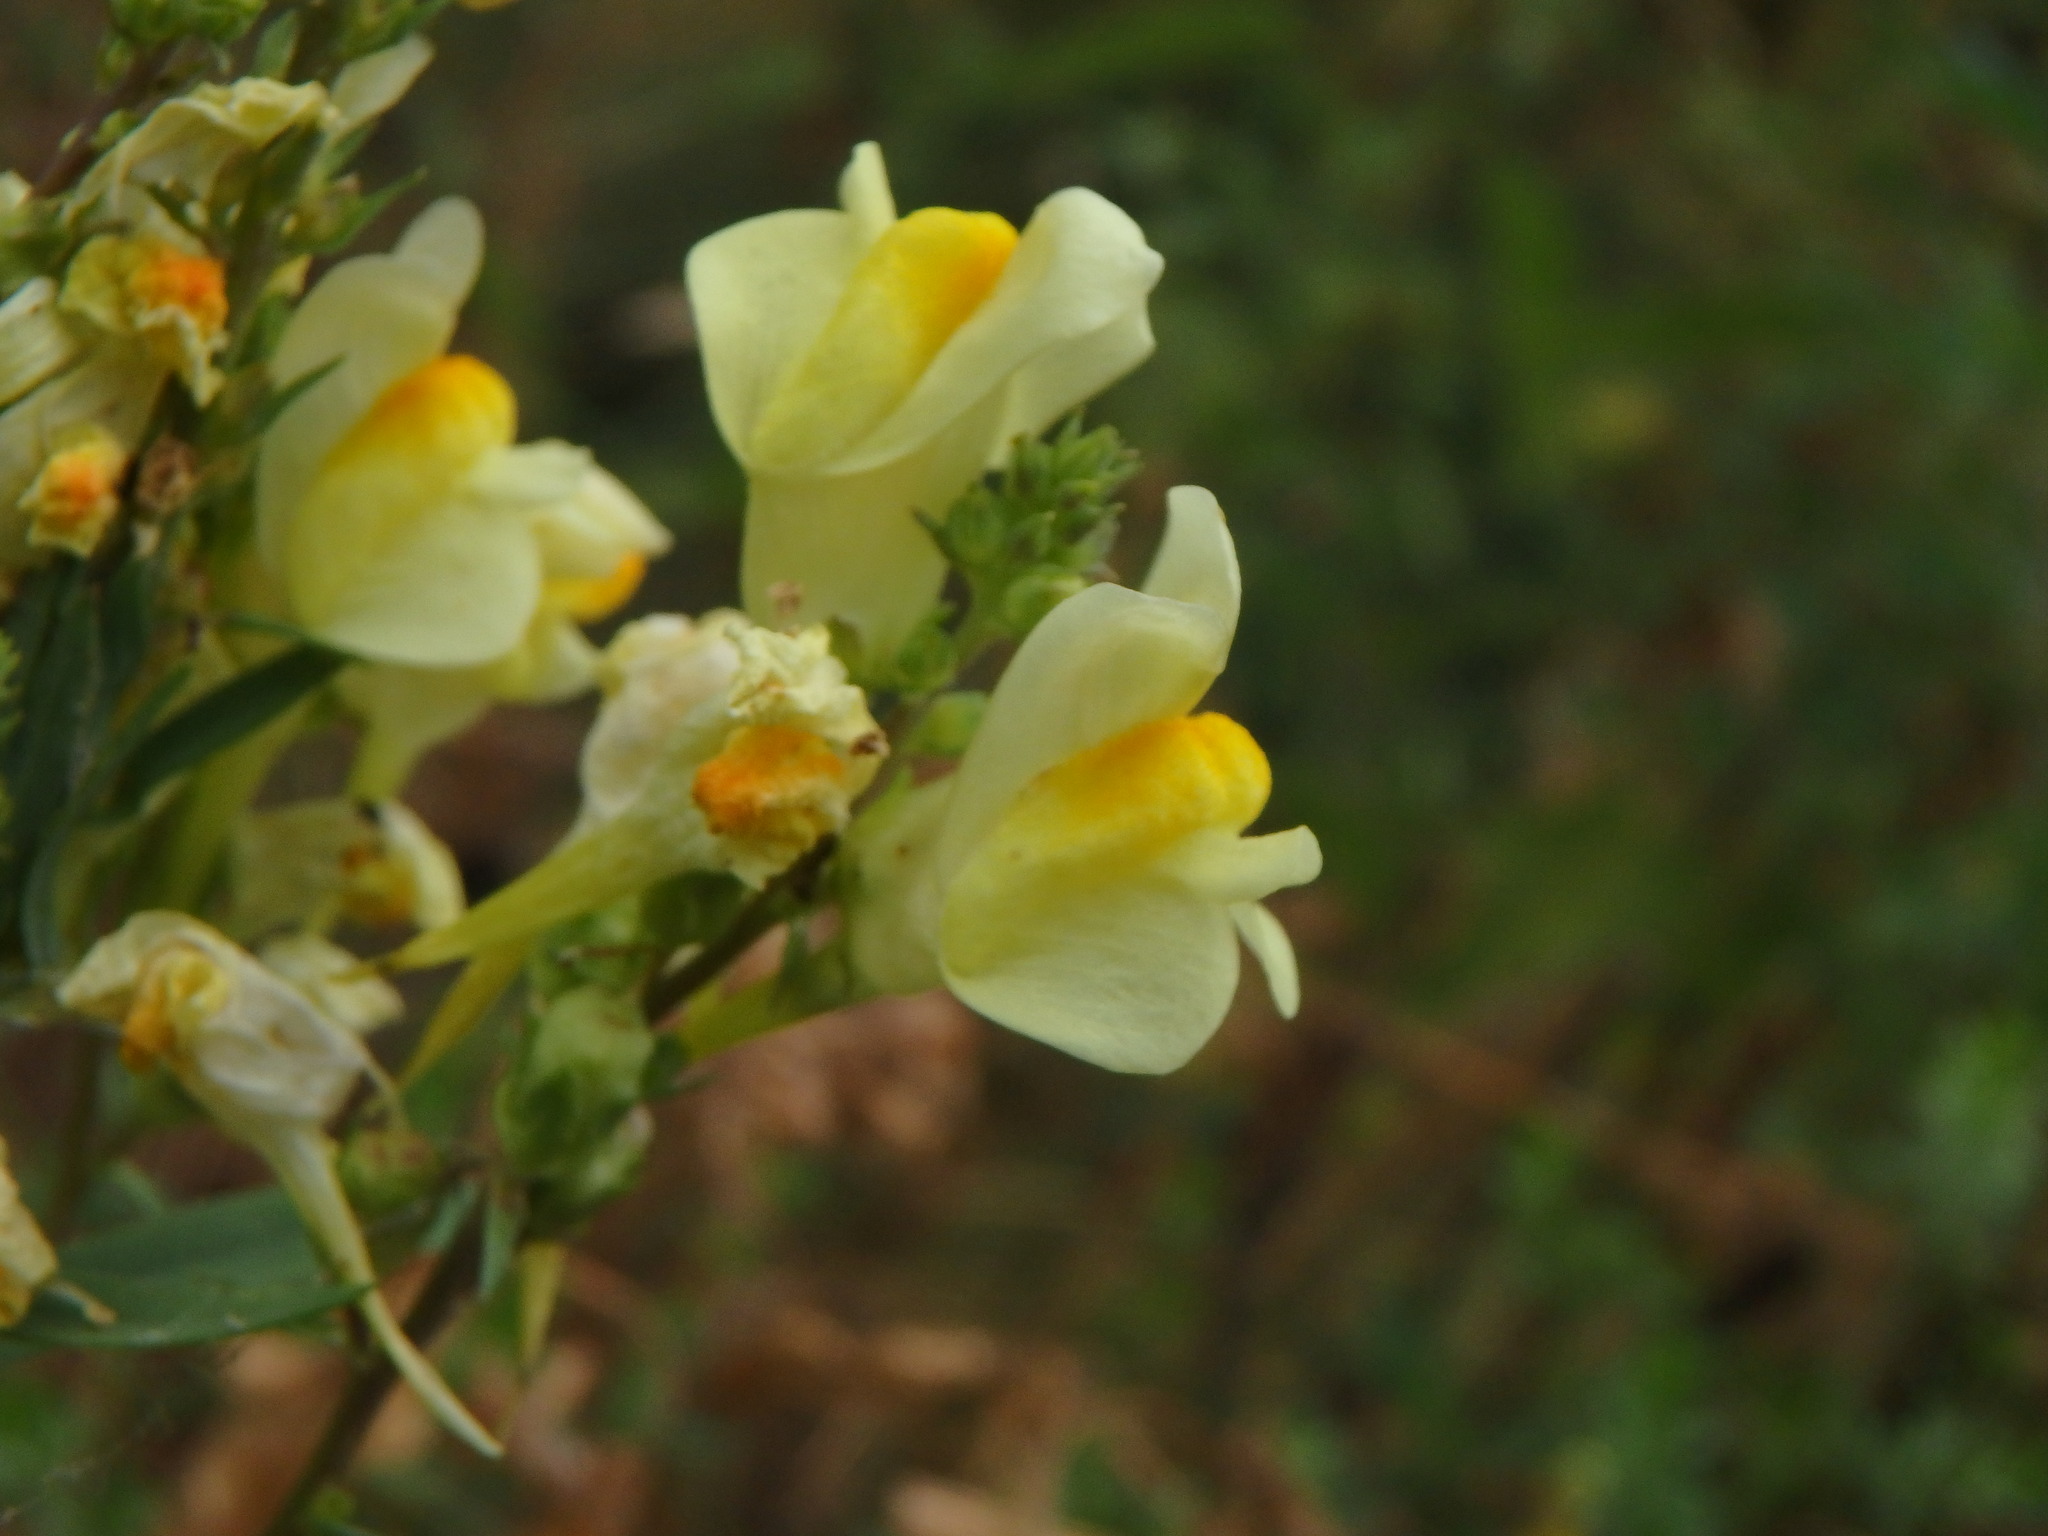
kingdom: Plantae
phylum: Tracheophyta
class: Magnoliopsida
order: Lamiales
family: Plantaginaceae
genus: Linaria
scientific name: Linaria vulgaris
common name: Butter and eggs
